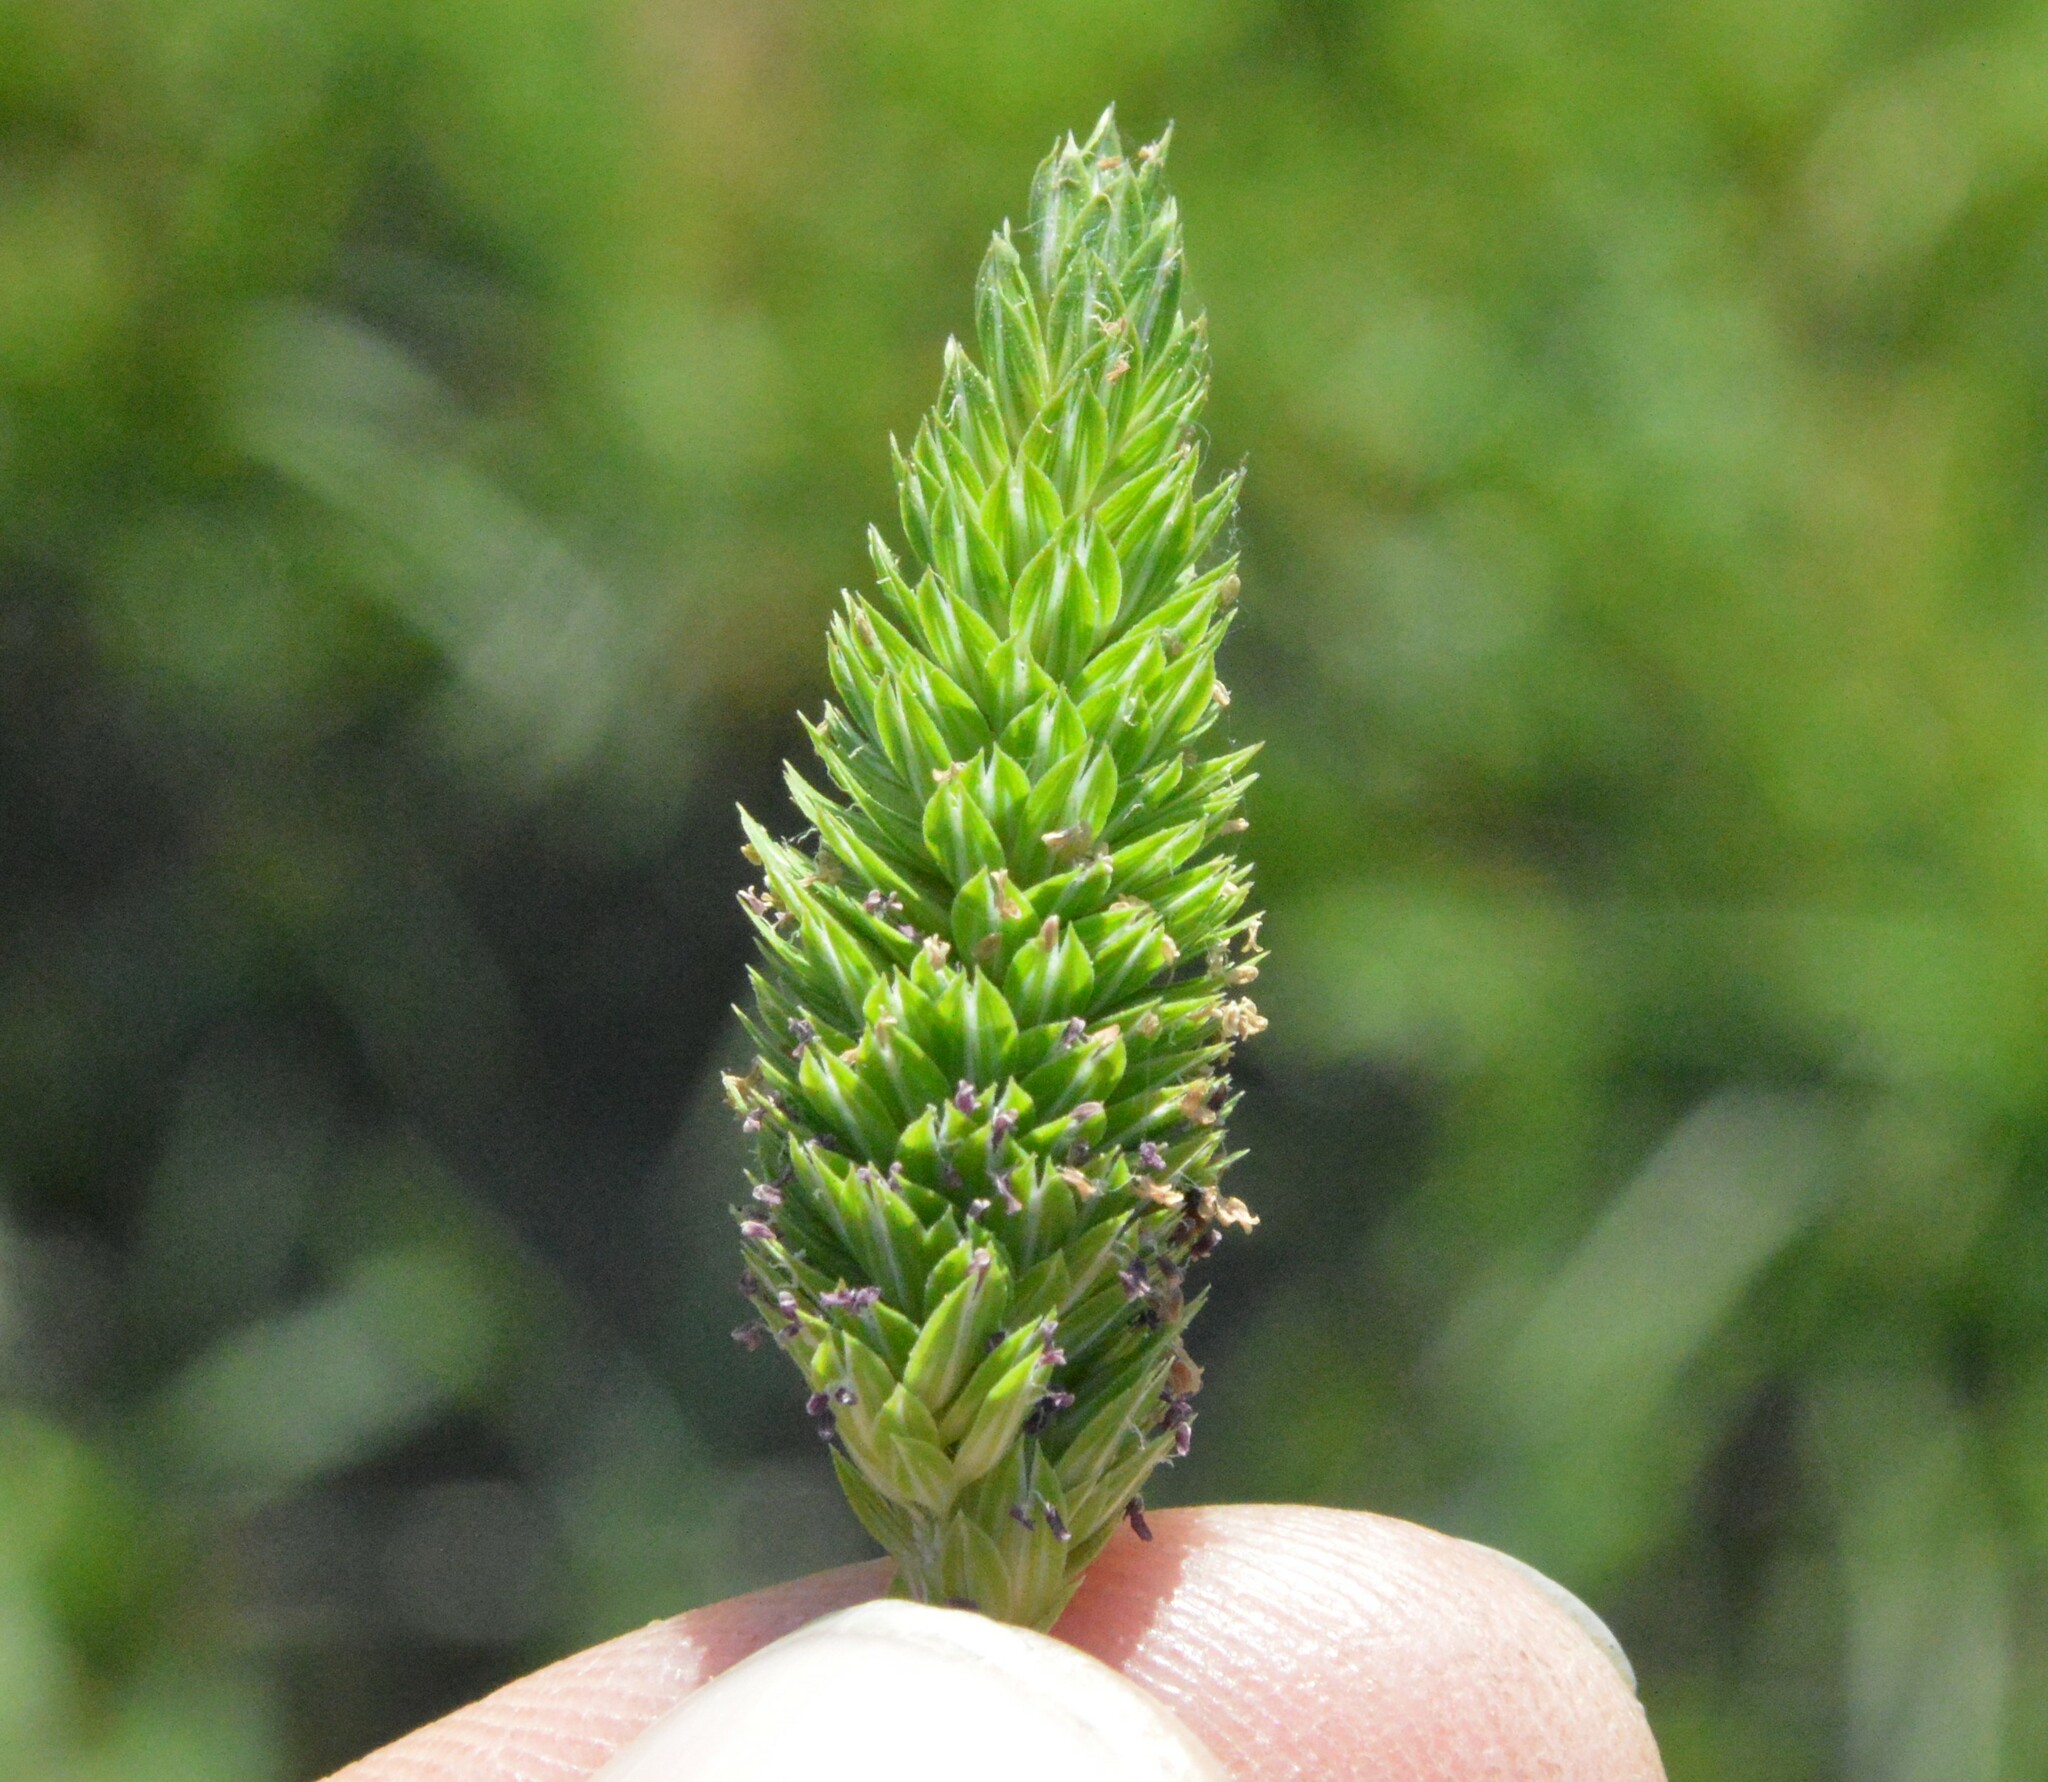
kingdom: Plantae
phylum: Tracheophyta
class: Liliopsida
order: Poales
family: Poaceae
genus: Phalaris
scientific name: Phalaris caroliniana
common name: May grass
